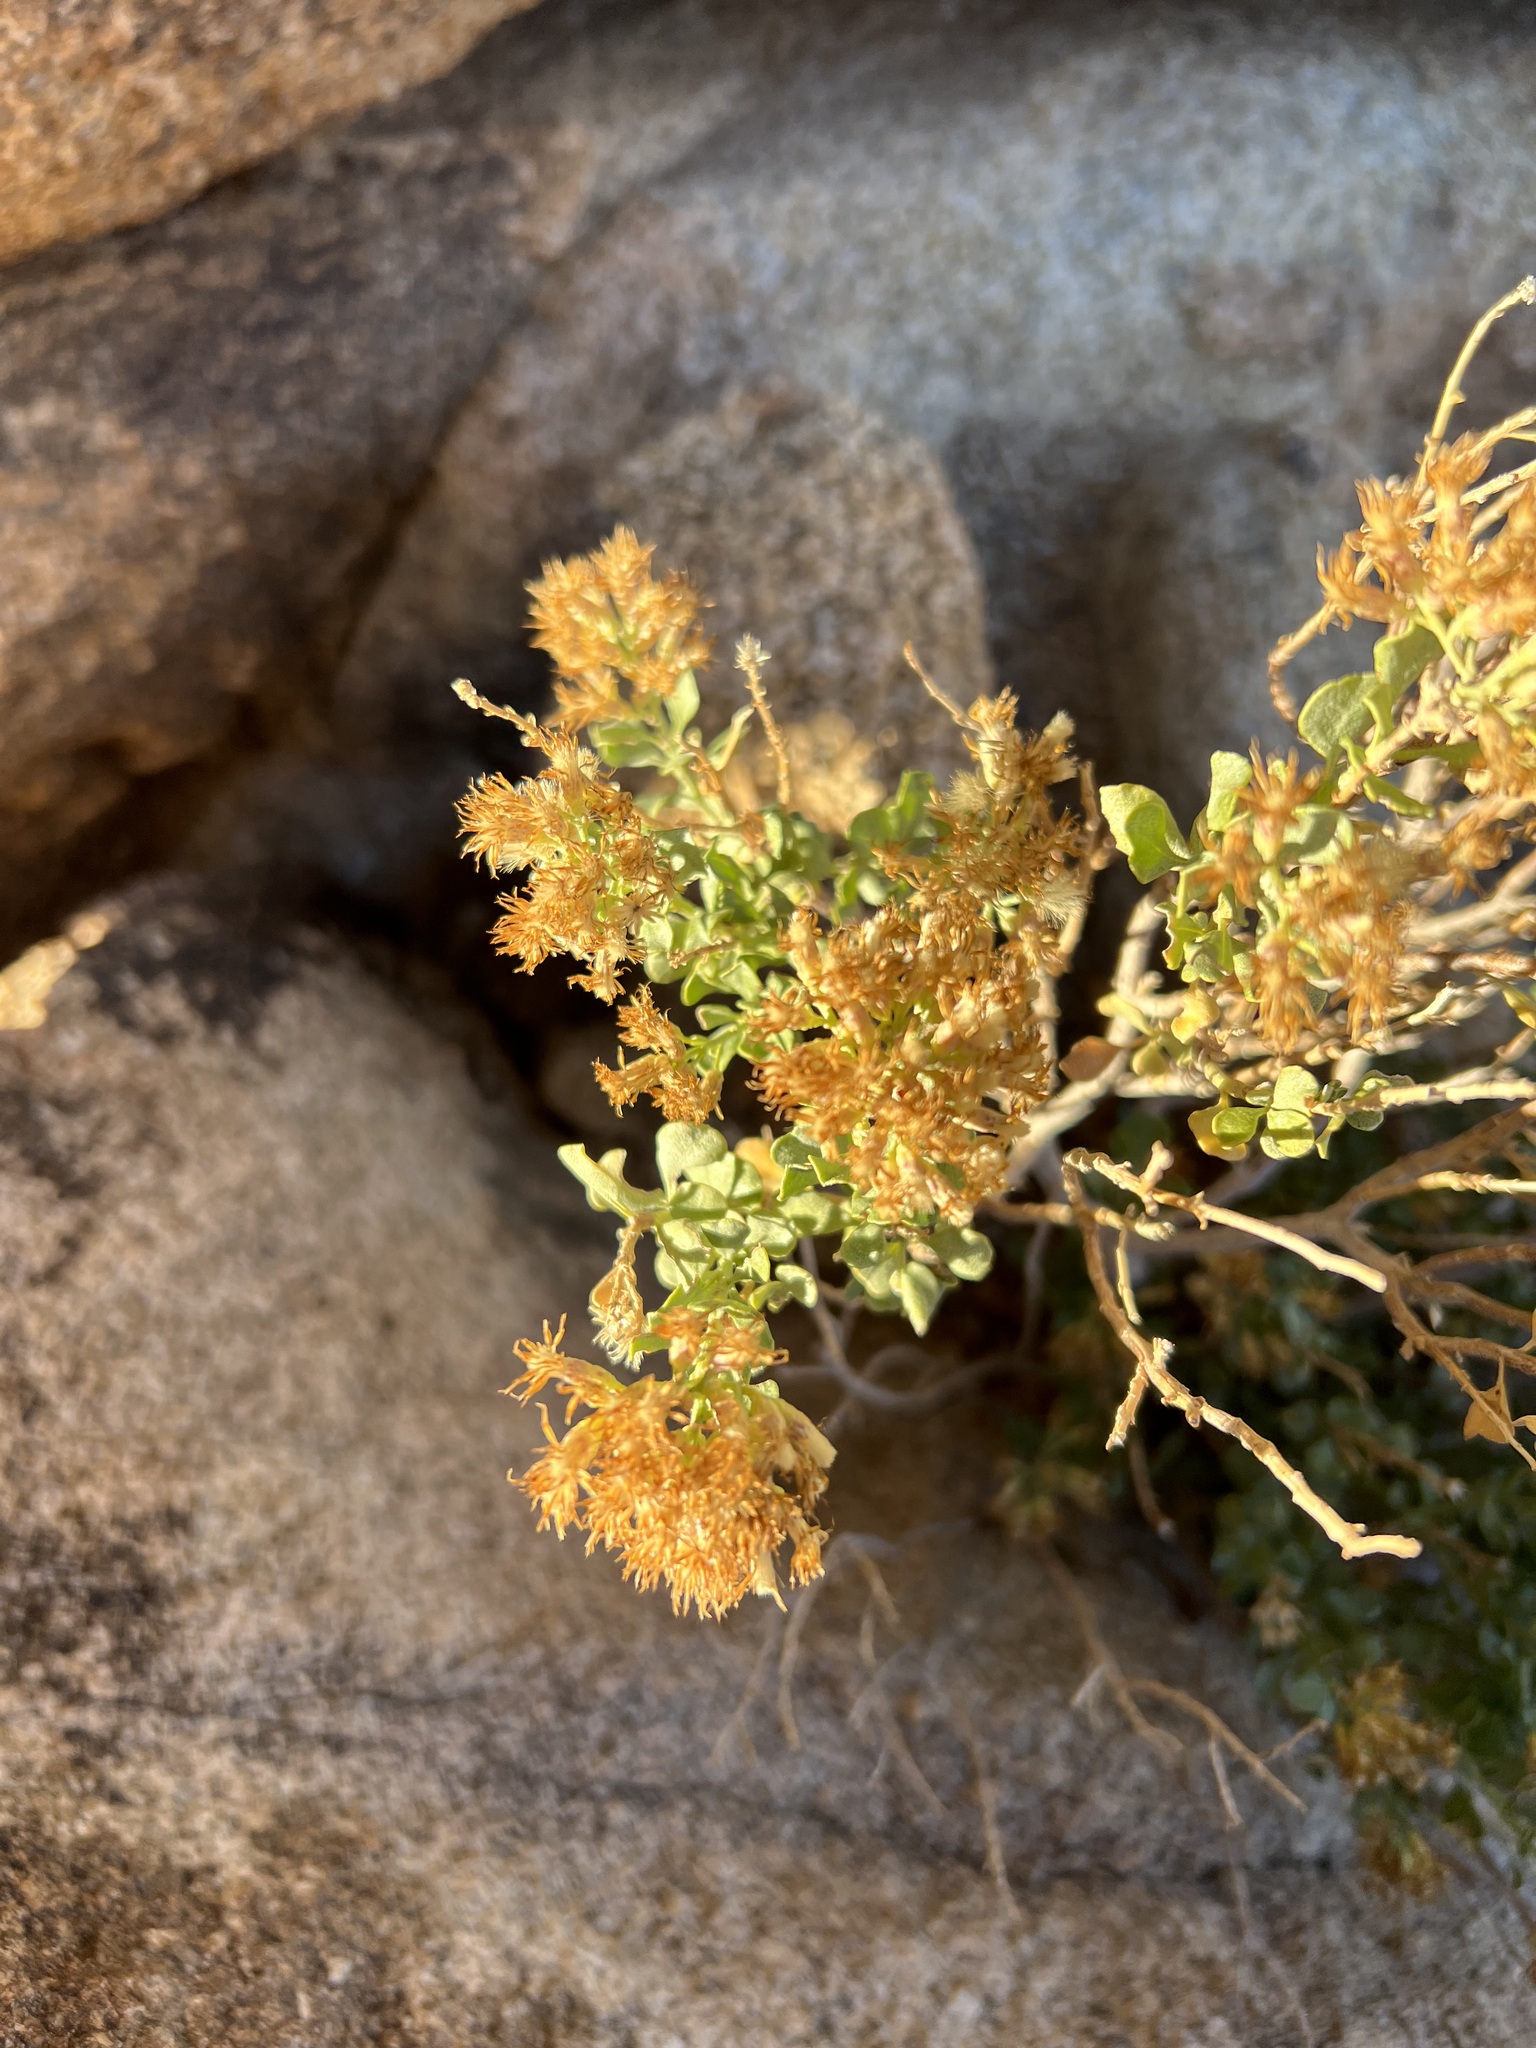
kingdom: Plantae
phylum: Tracheophyta
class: Magnoliopsida
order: Asterales
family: Asteraceae
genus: Ericameria
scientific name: Ericameria cuneata
